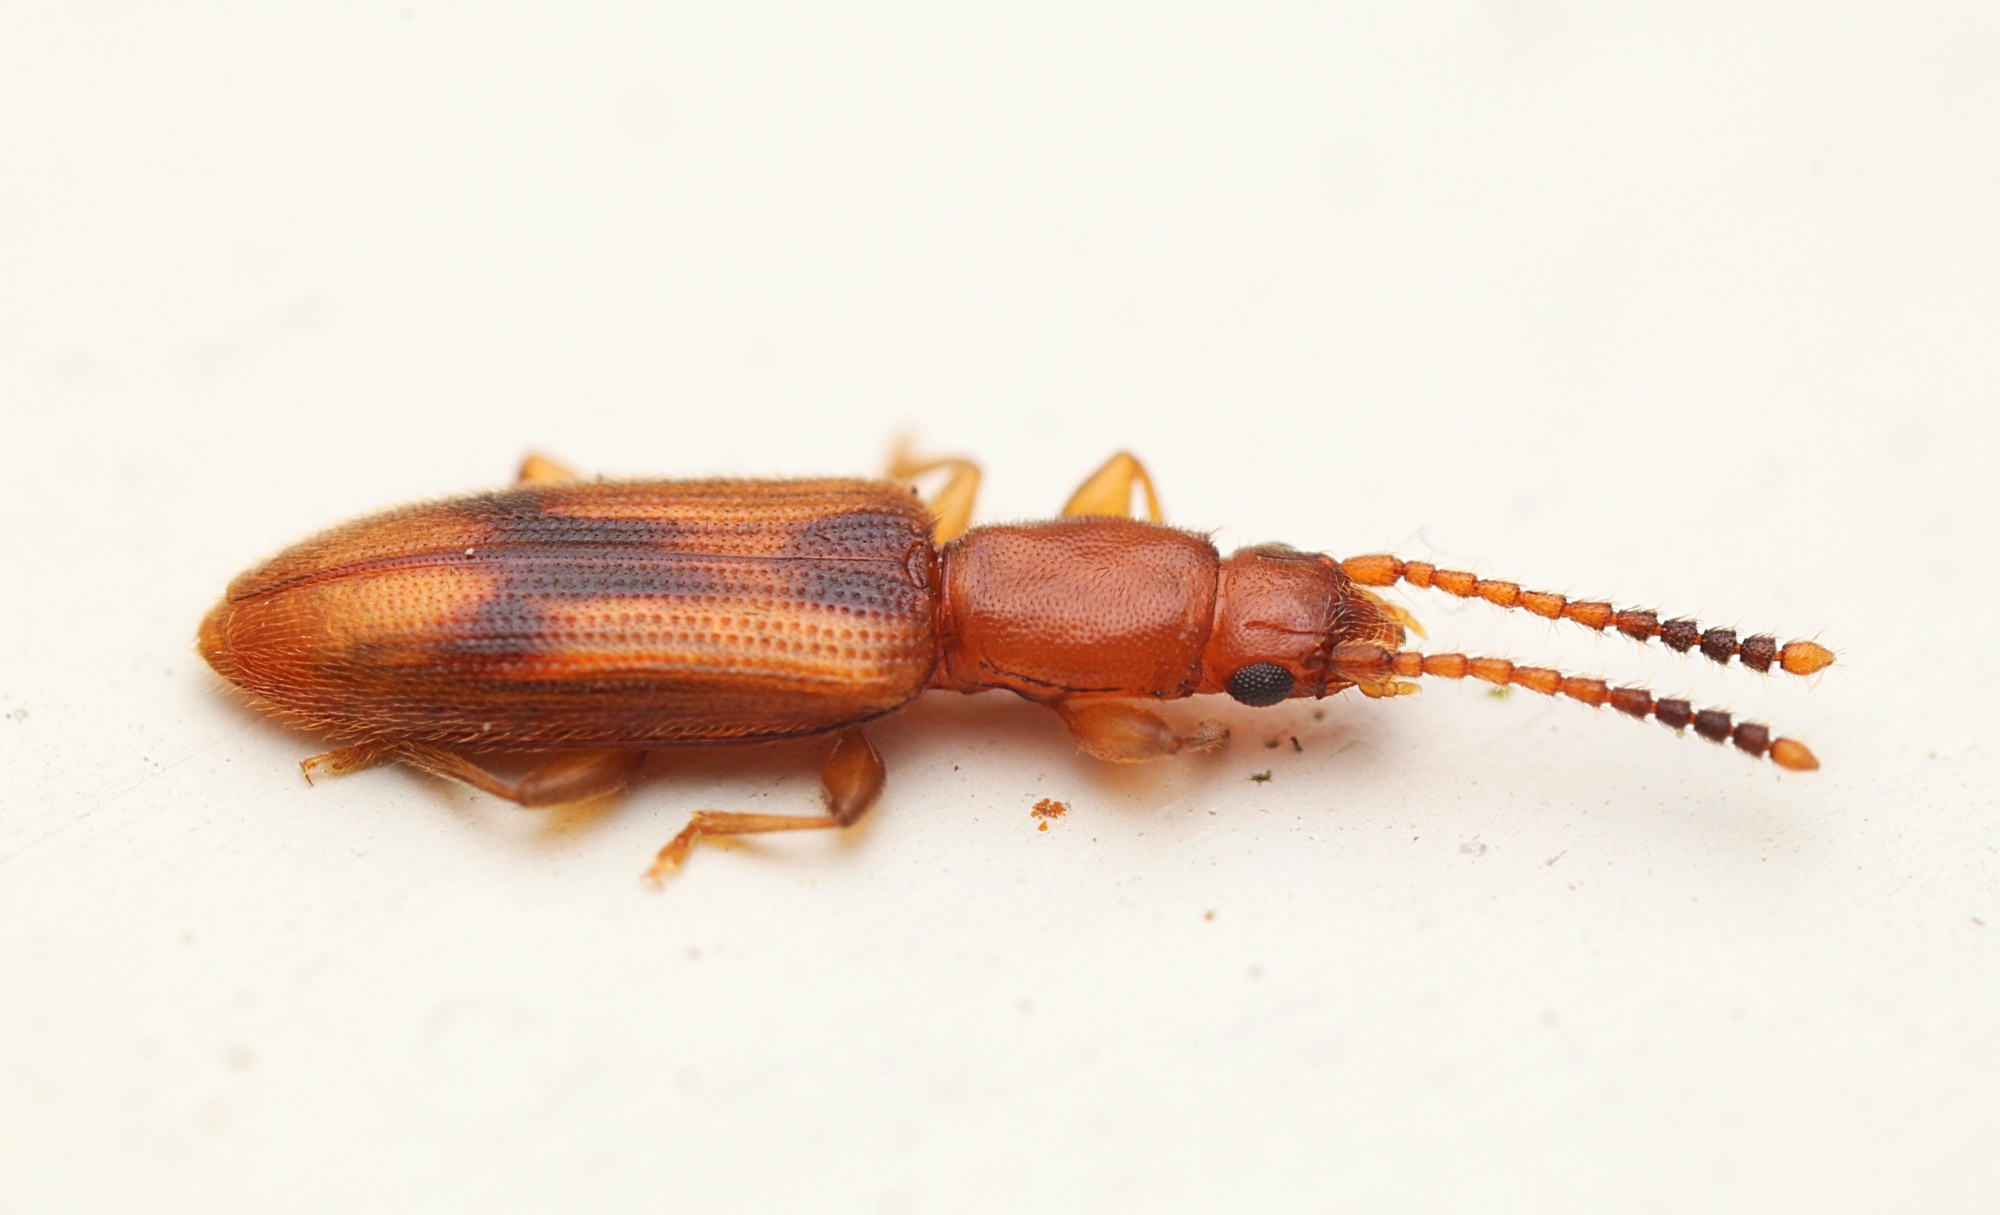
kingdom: Animalia
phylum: Arthropoda
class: Insecta
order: Coleoptera
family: Silvanidae
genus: Cryptamorpha
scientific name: Cryptamorpha desjardinsi
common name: Cryptamorpha
